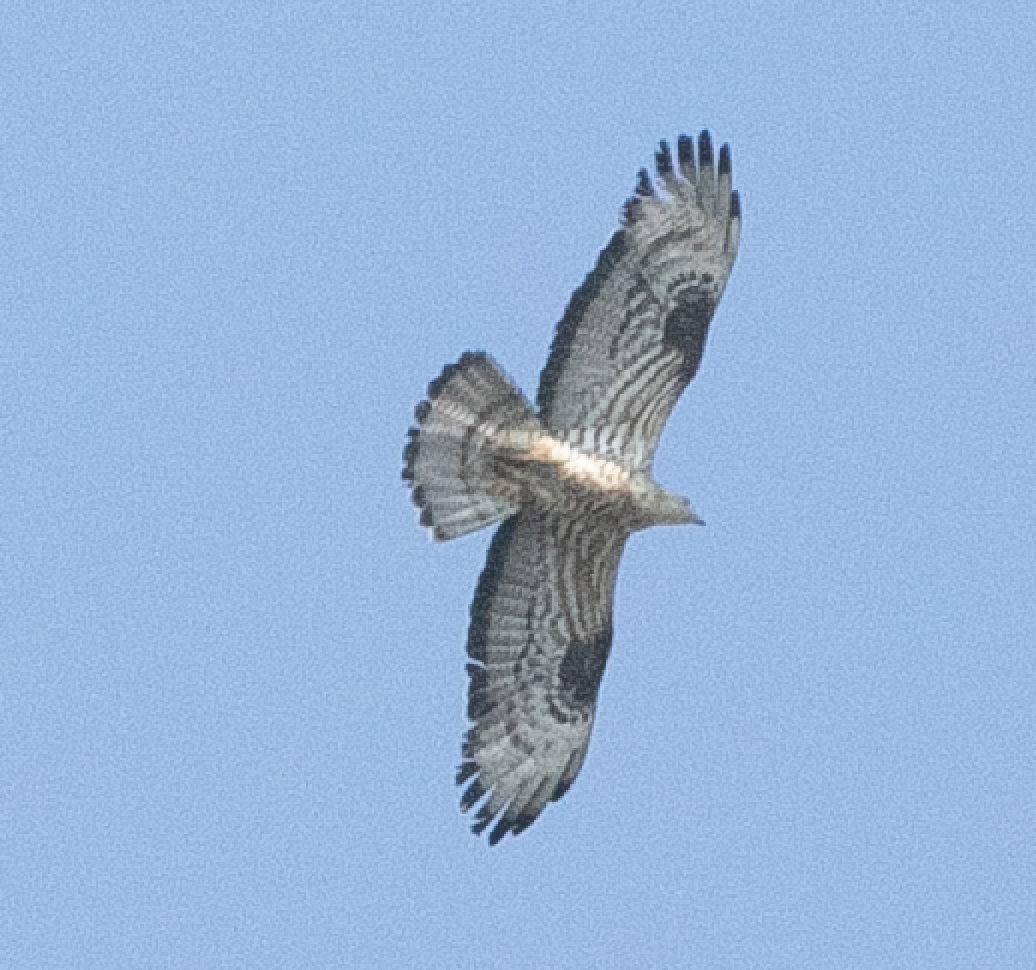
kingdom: Animalia
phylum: Chordata
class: Aves
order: Accipitriformes
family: Accipitridae
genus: Pernis
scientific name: Pernis apivorus
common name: European honey buzzard
